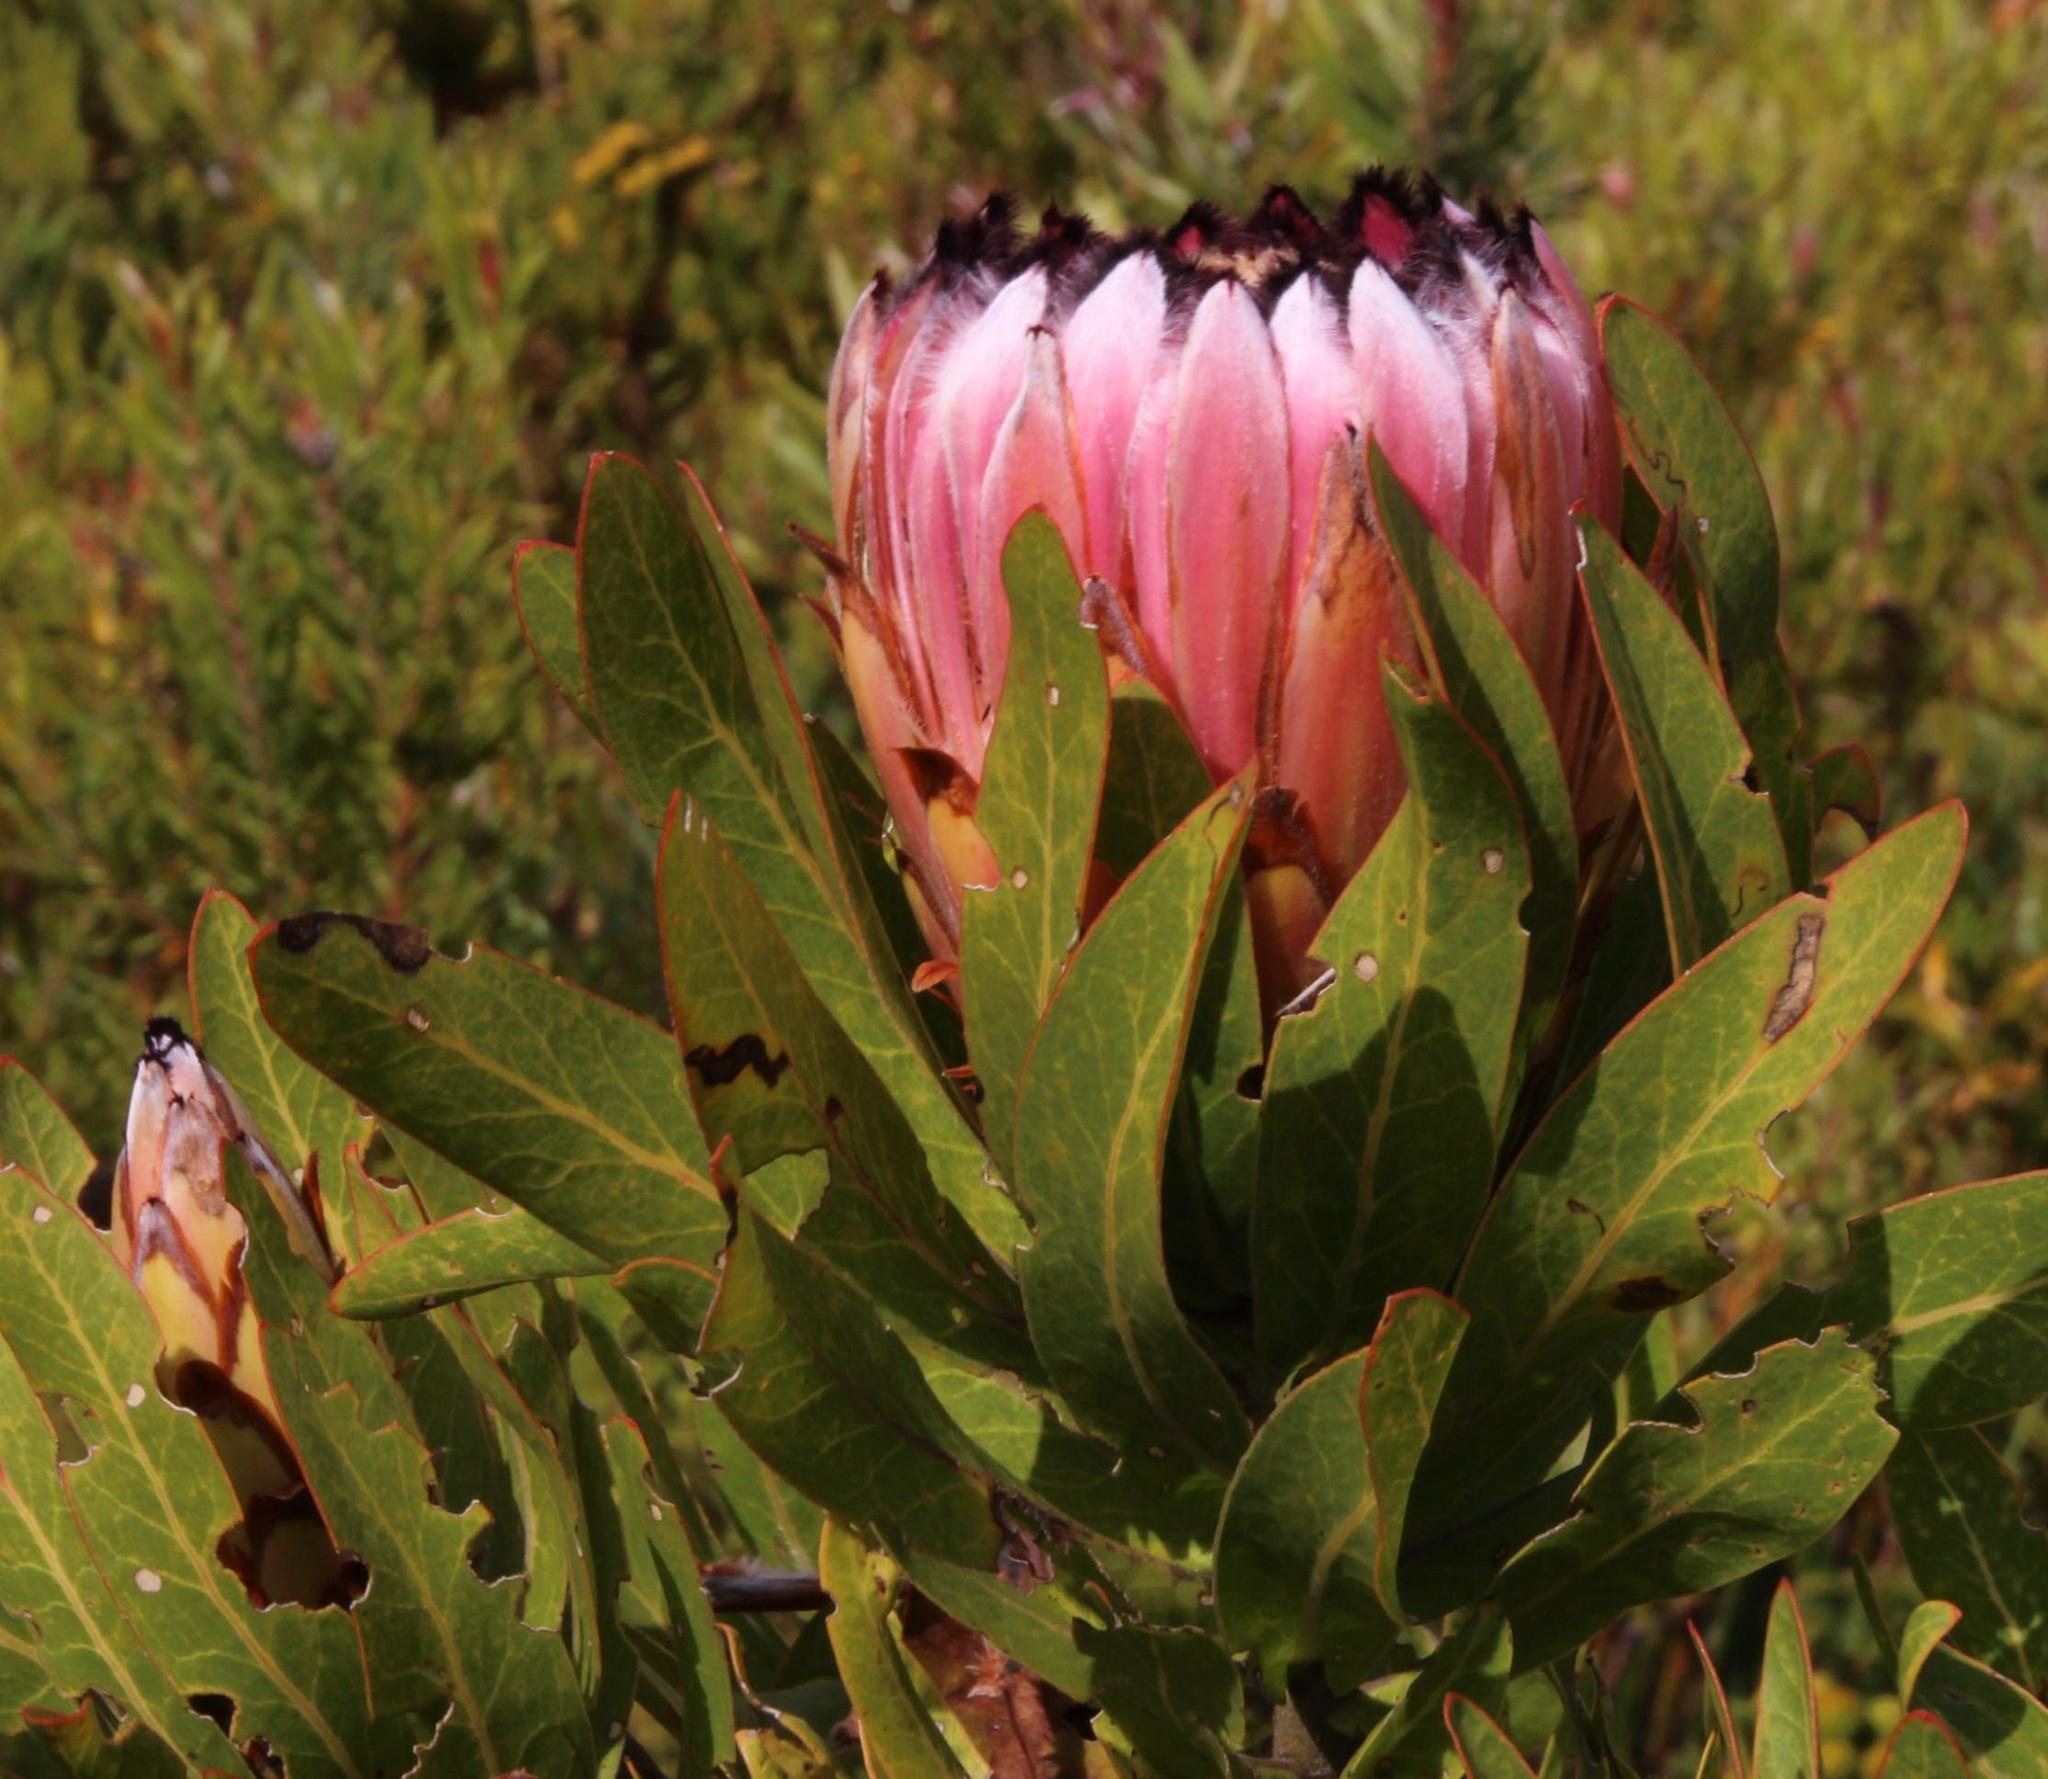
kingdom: Plantae
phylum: Tracheophyta
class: Magnoliopsida
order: Proteales
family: Proteaceae
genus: Protea
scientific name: Protea neriifolia
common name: Blue sugarbush
